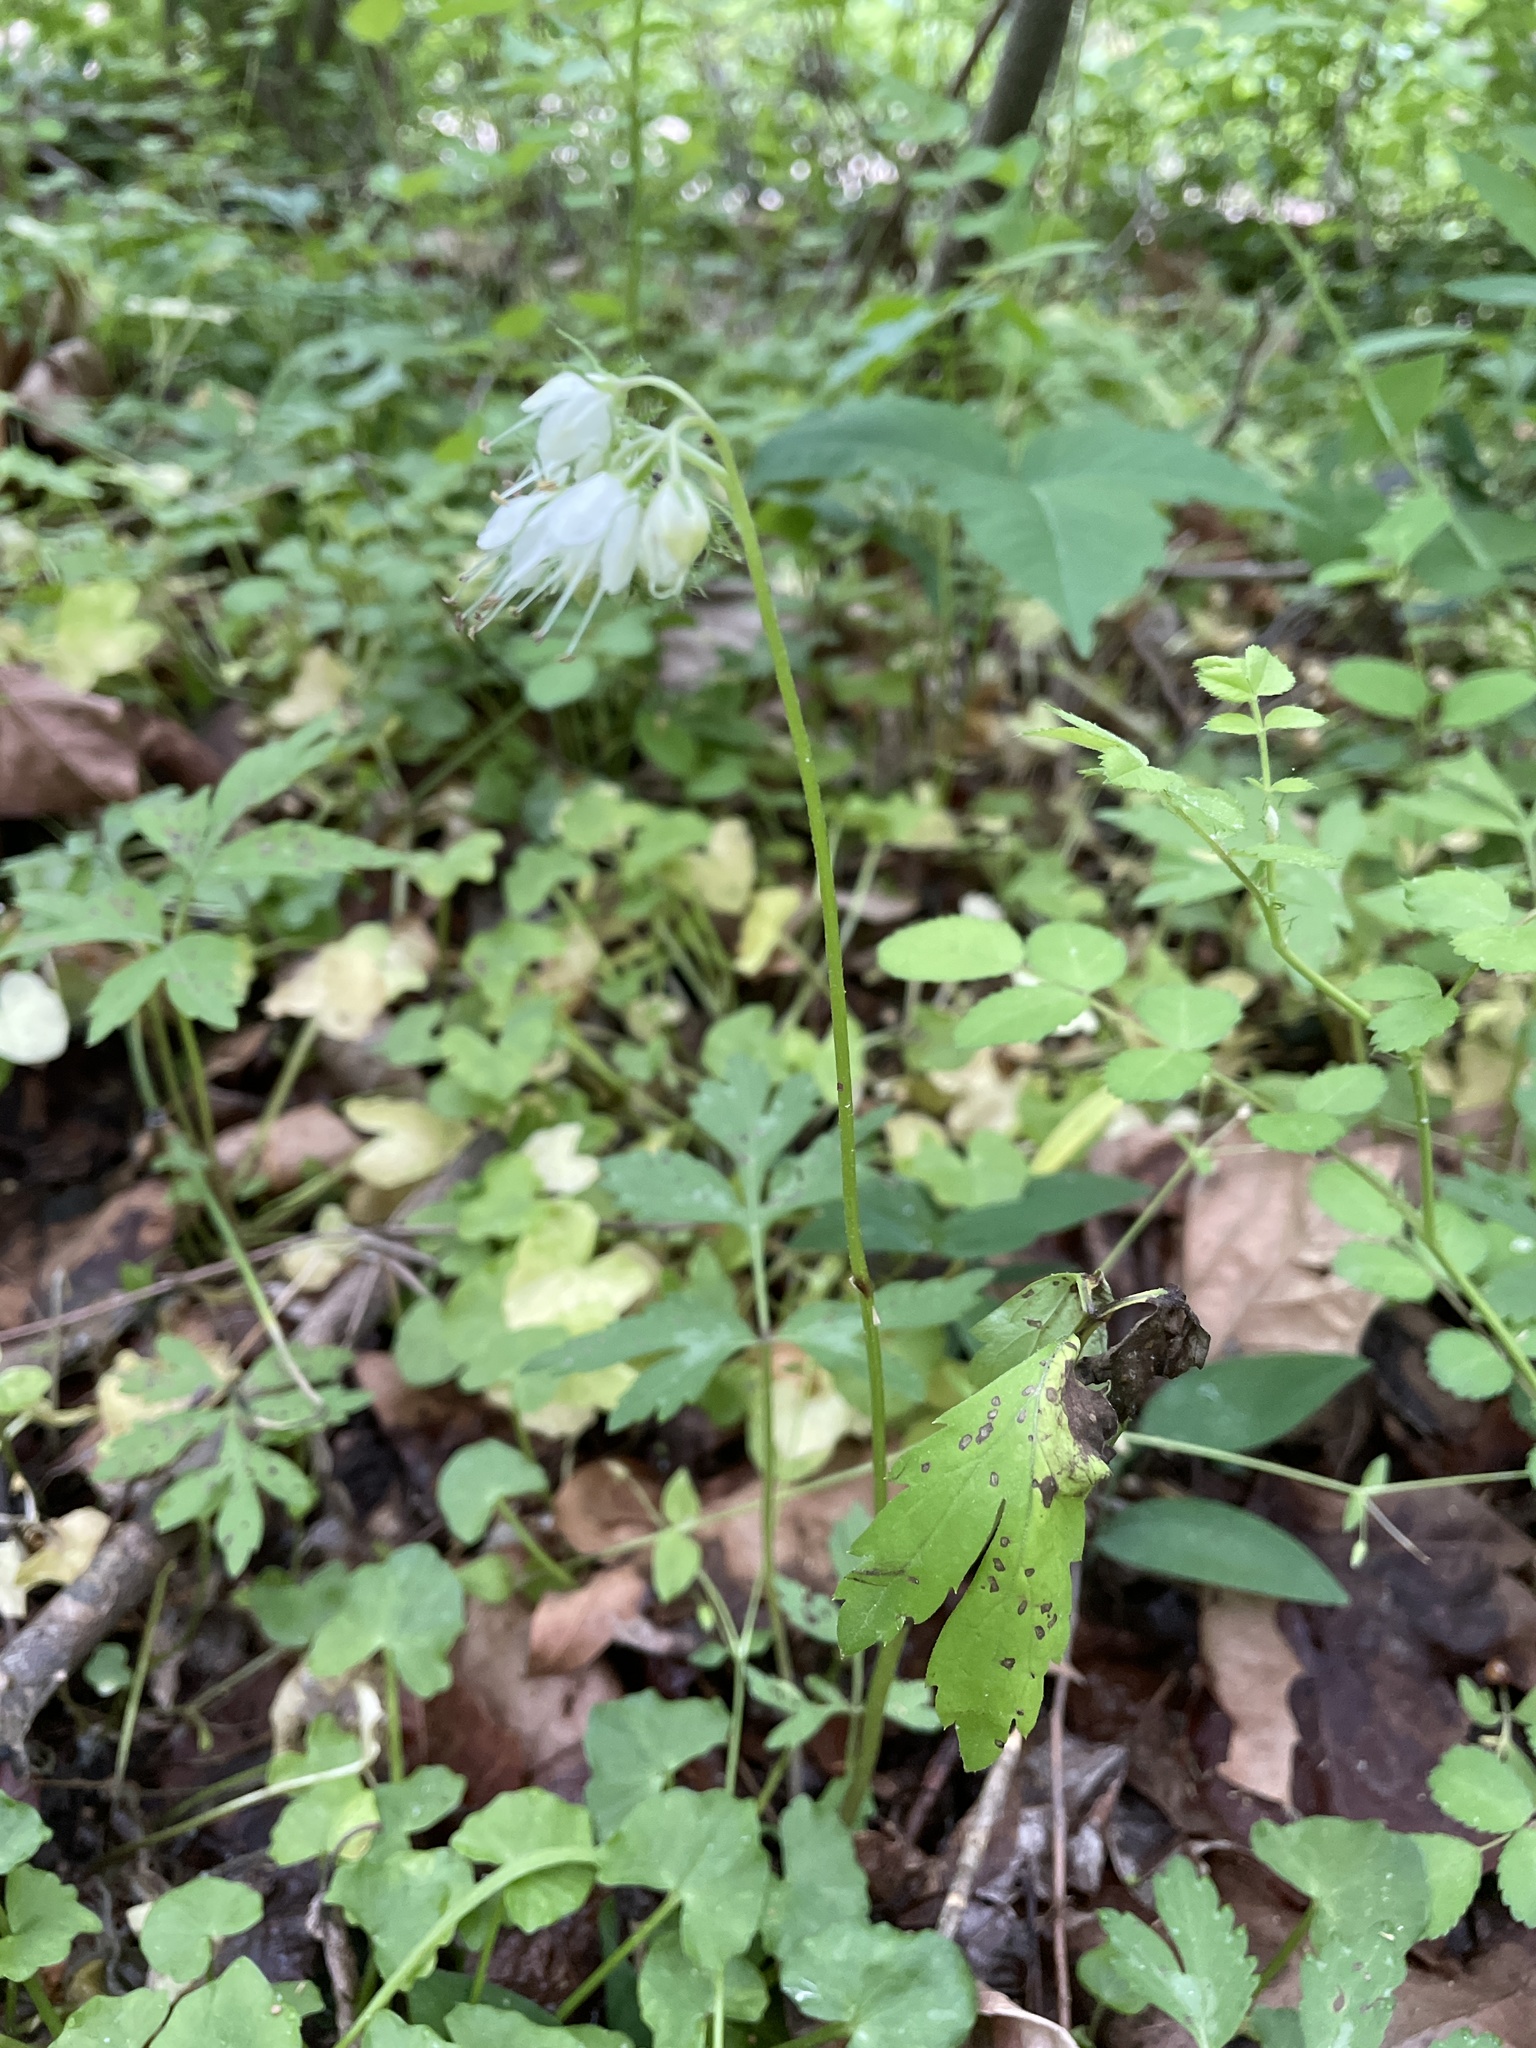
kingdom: Plantae
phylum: Tracheophyta
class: Magnoliopsida
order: Boraginales
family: Hydrophyllaceae
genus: Hydrophyllum
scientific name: Hydrophyllum virginianum
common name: Virginia waterleaf
